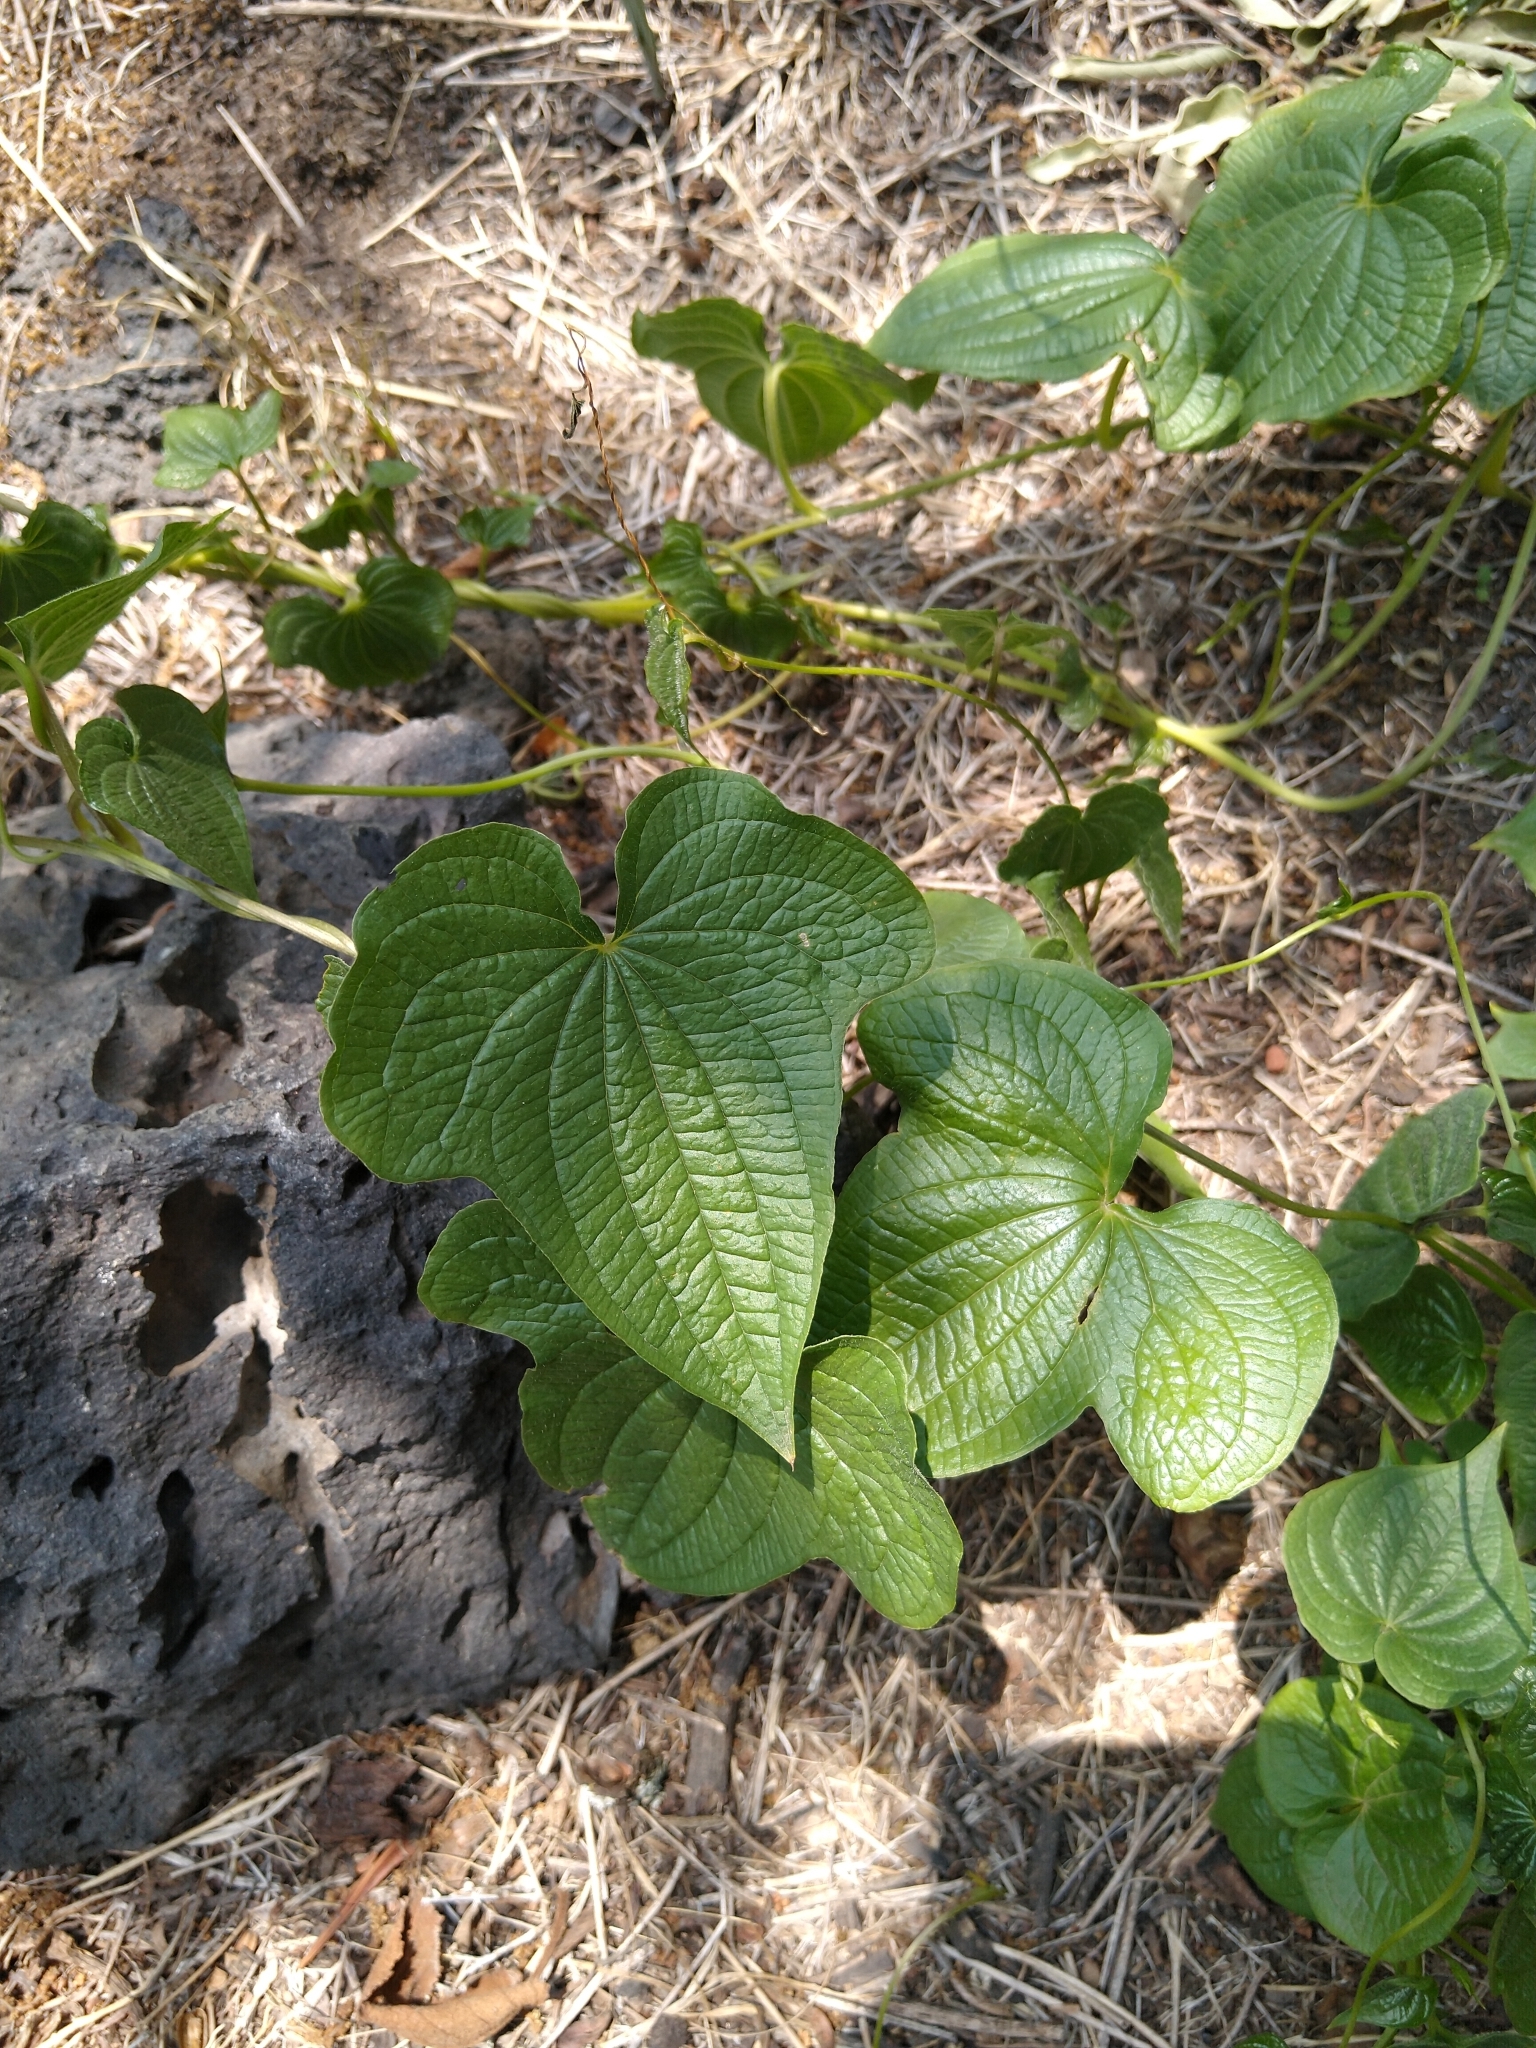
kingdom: Plantae
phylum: Tracheophyta
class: Liliopsida
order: Dioscoreales
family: Dioscoreaceae
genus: Dioscorea
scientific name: Dioscorea galeottiana
